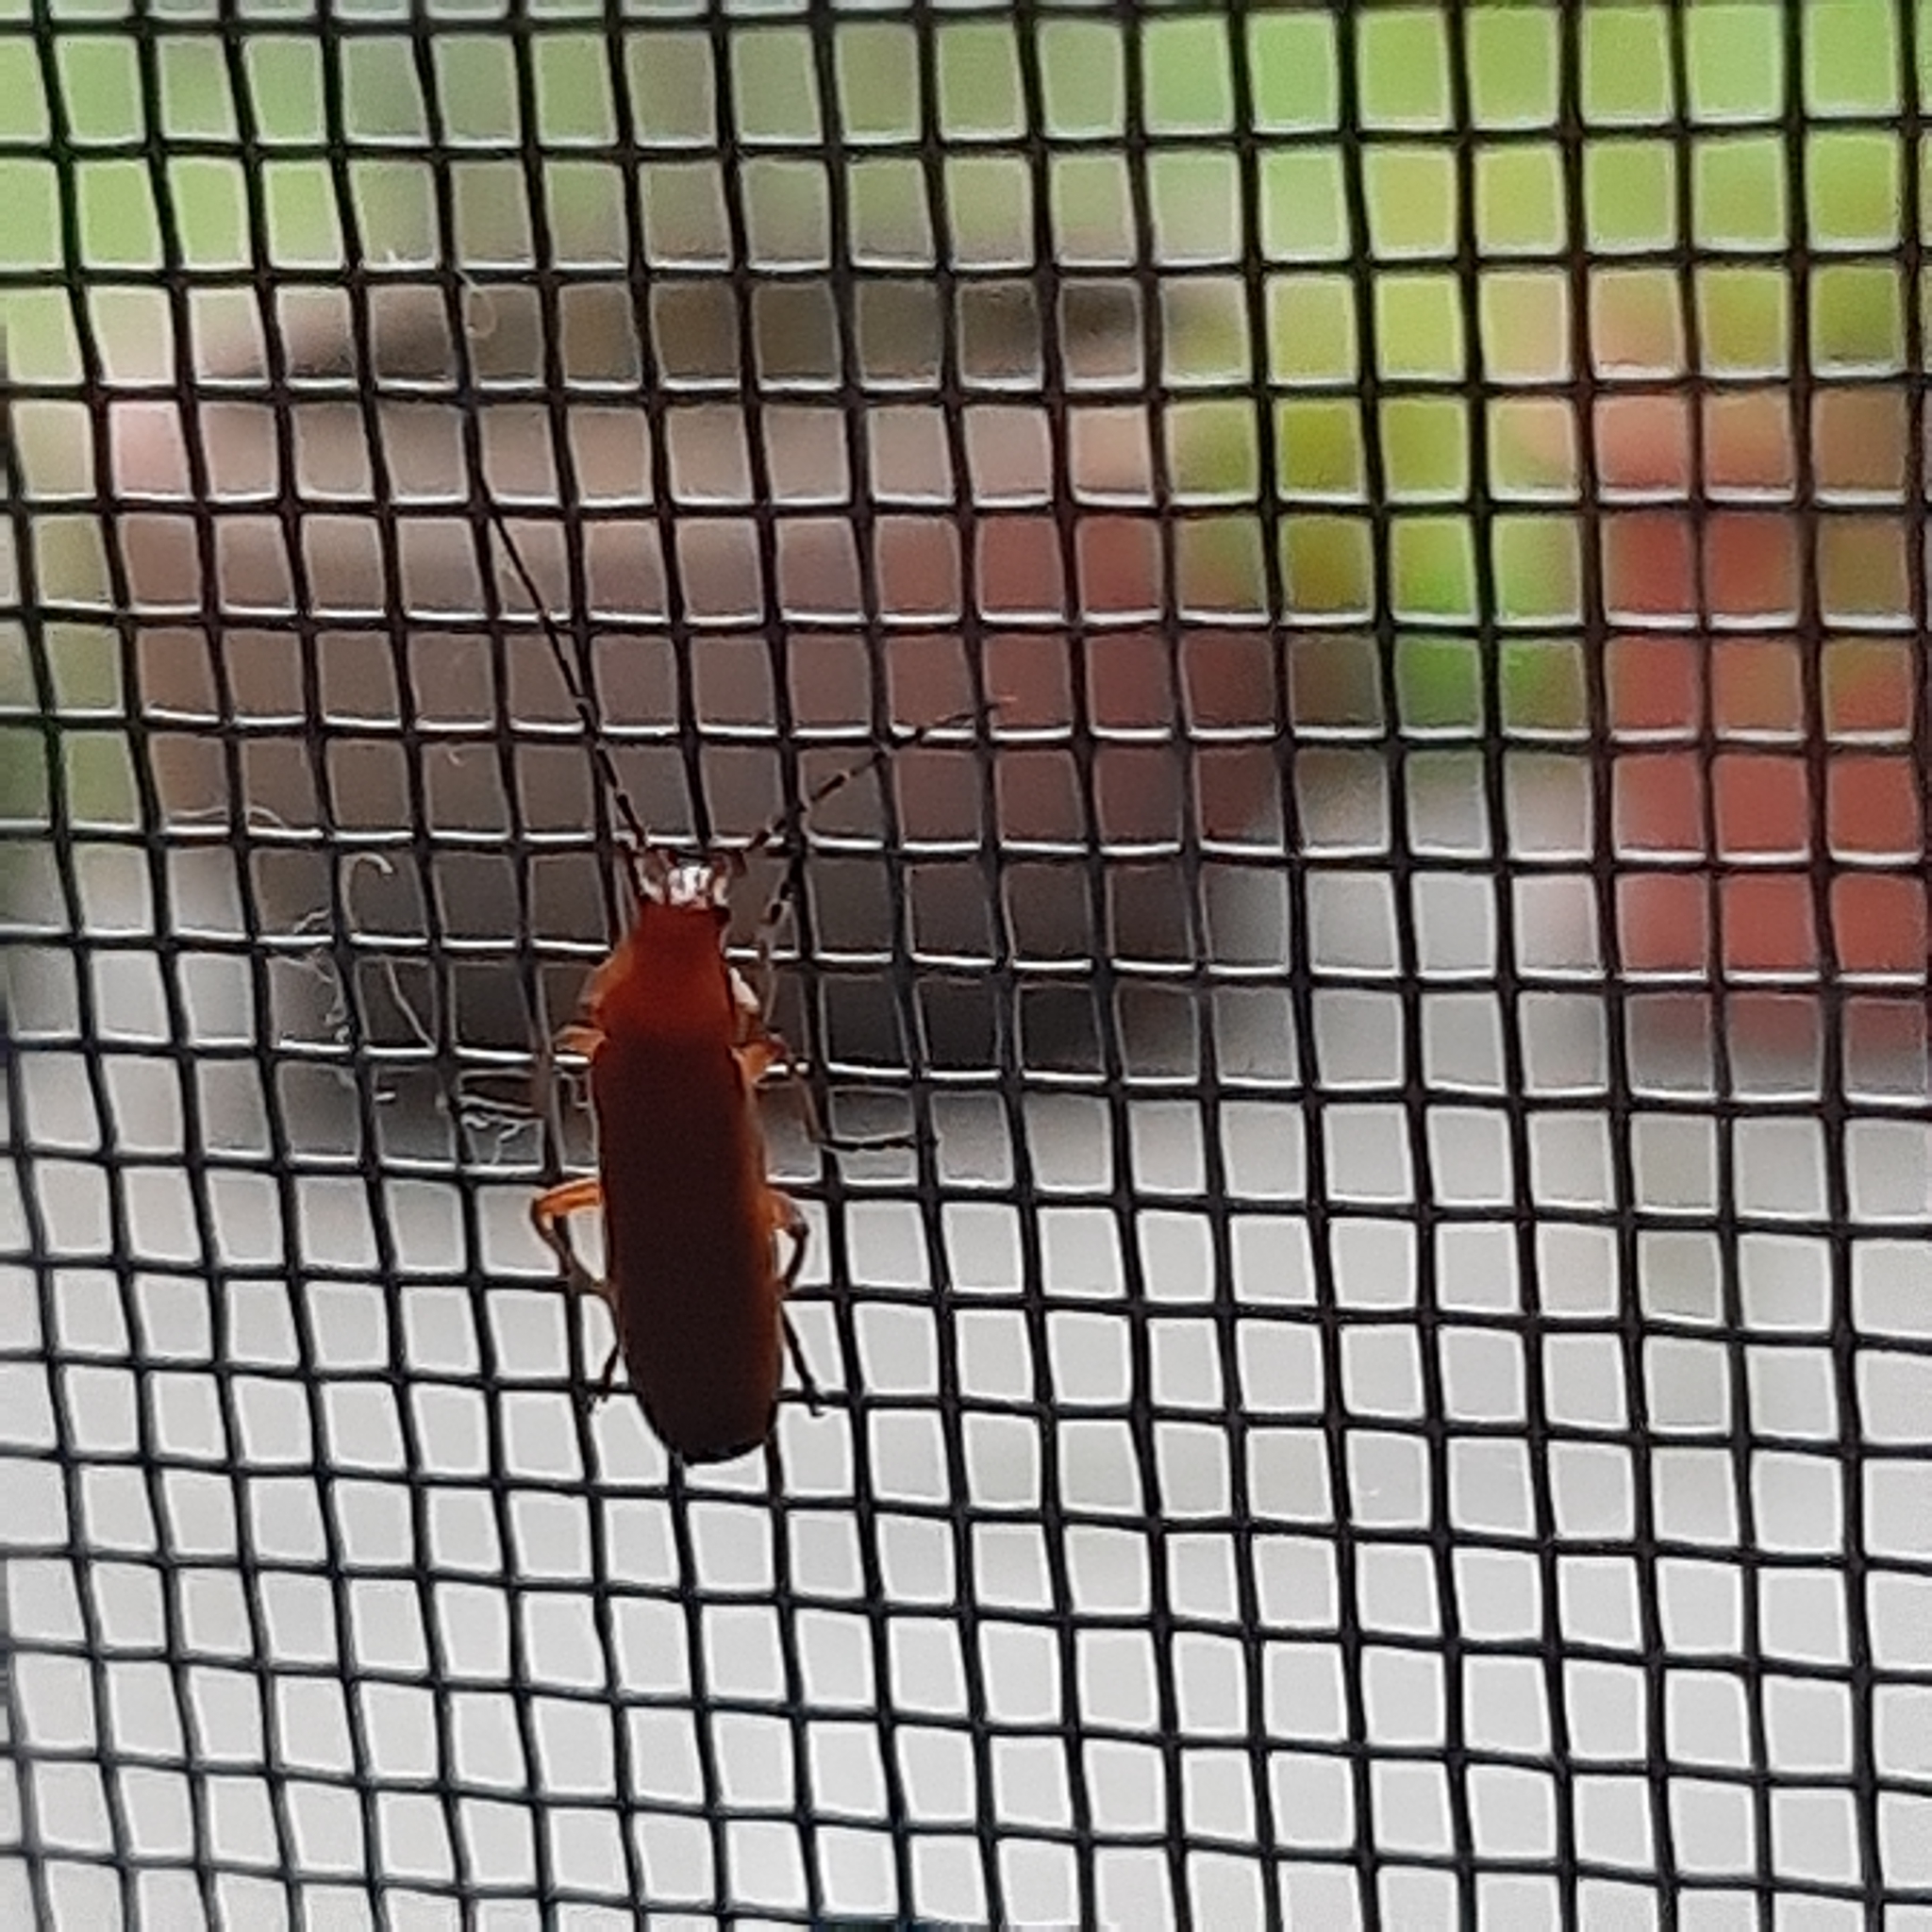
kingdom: Animalia
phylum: Arthropoda
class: Insecta
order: Coleoptera
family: Cantharidae
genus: Rhagonycha
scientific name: Rhagonycha fulva
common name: Common red soldier beetle
